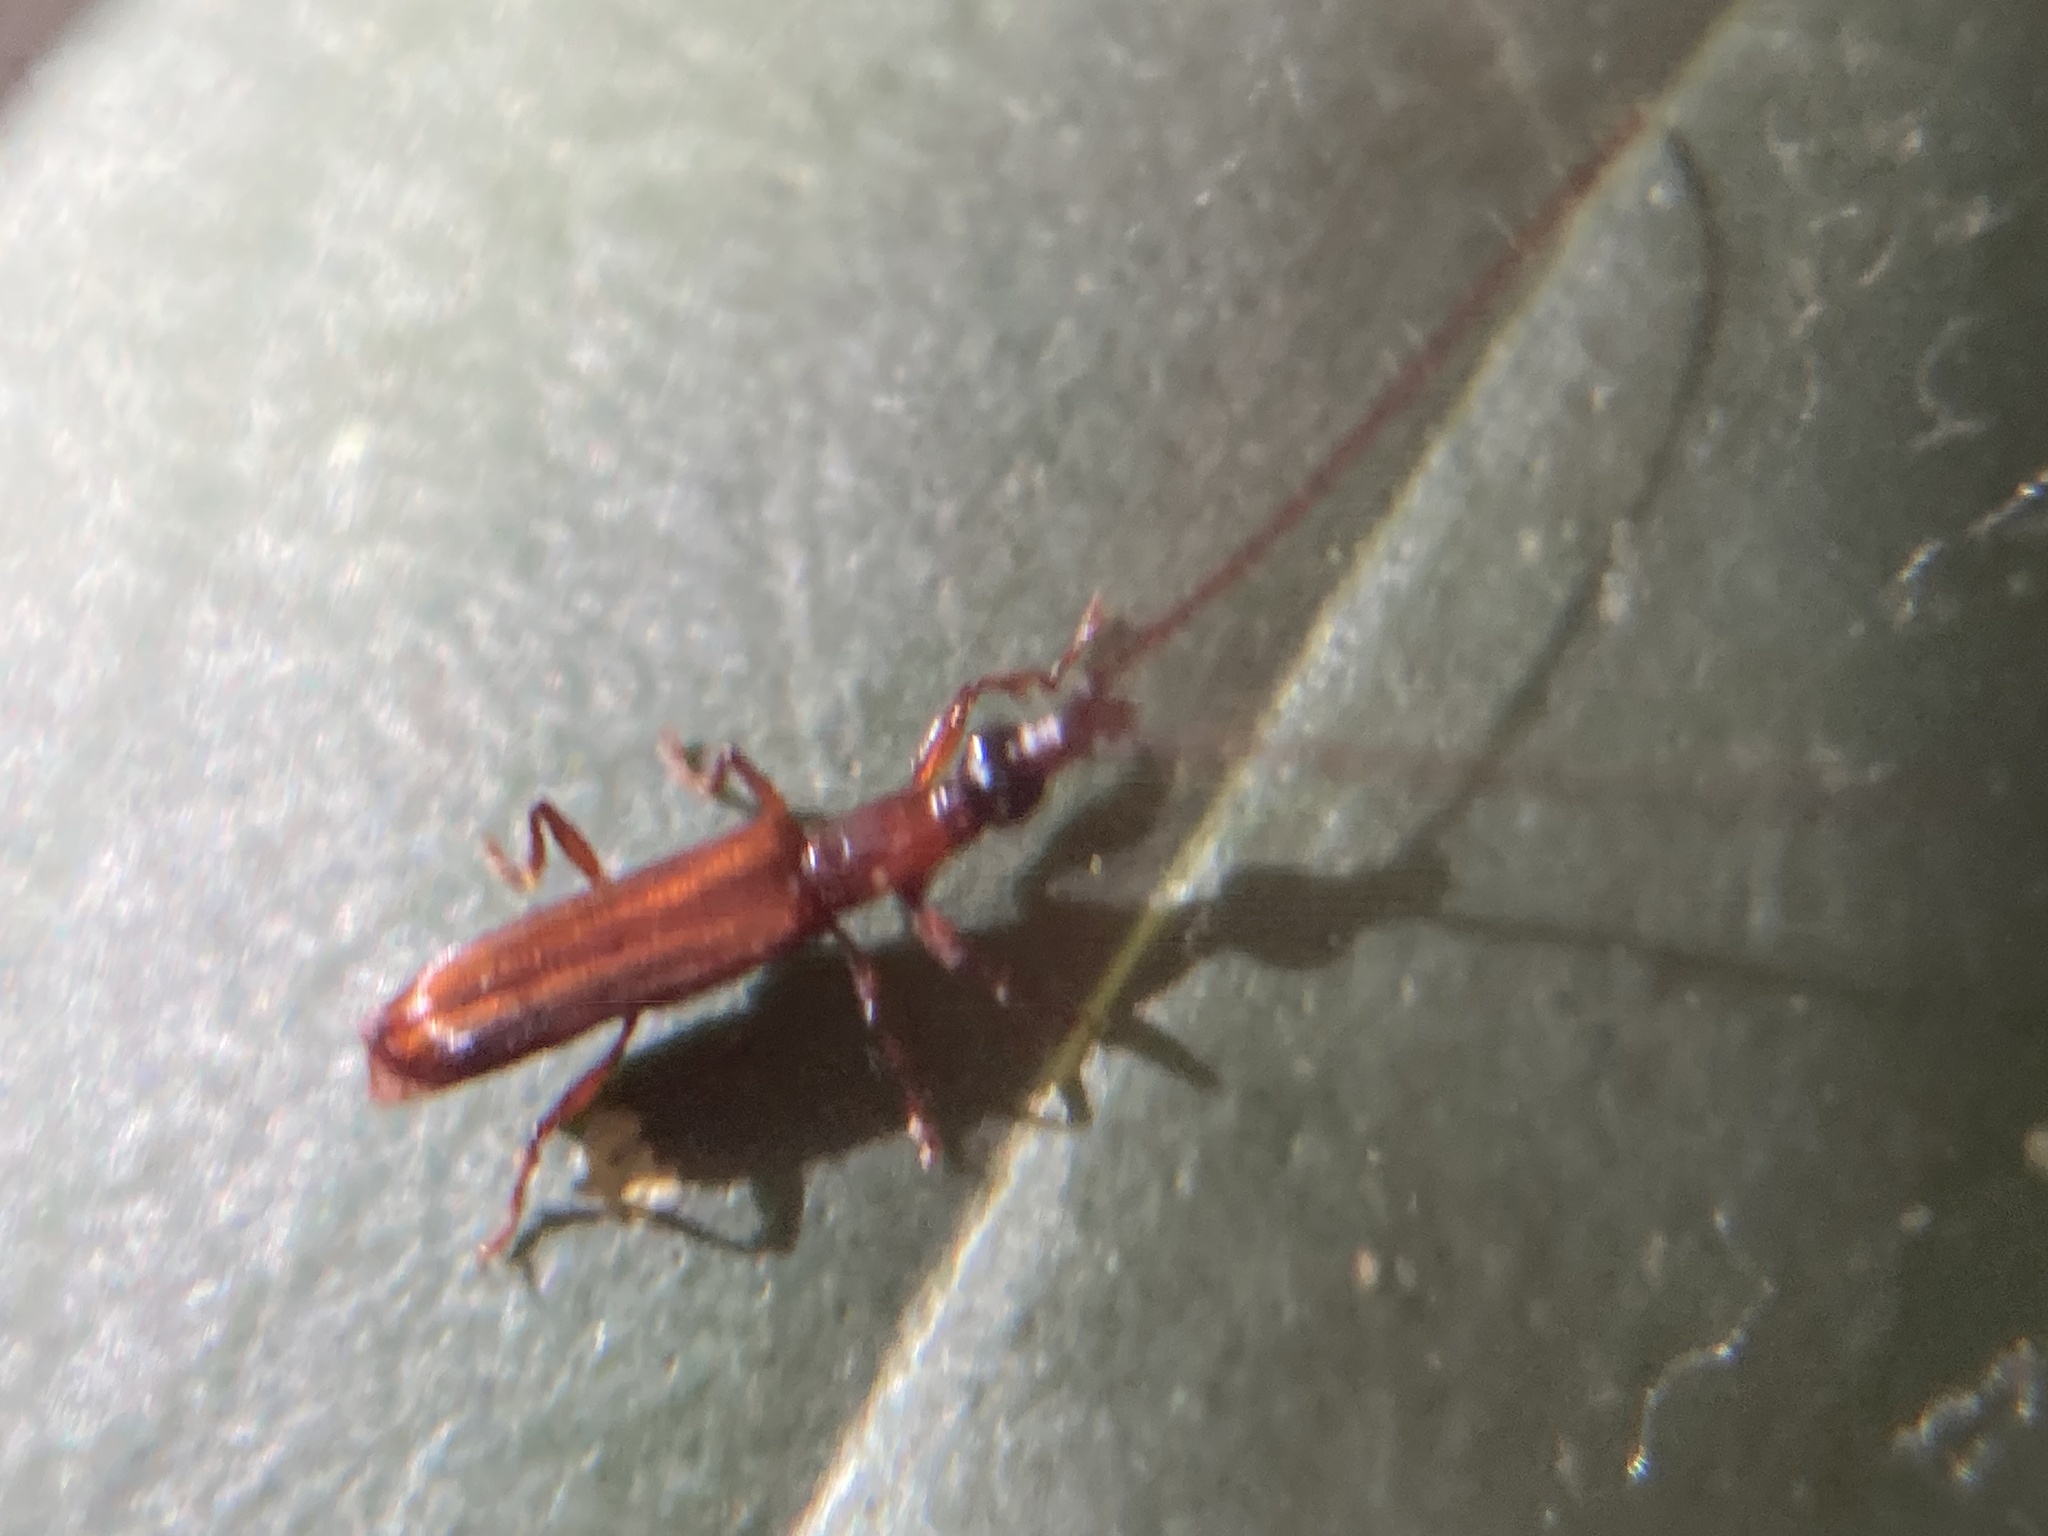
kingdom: Animalia
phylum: Arthropoda
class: Insecta
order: Coleoptera
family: Brentidae
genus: Cerobates
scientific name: Cerobates ophthalmicus
